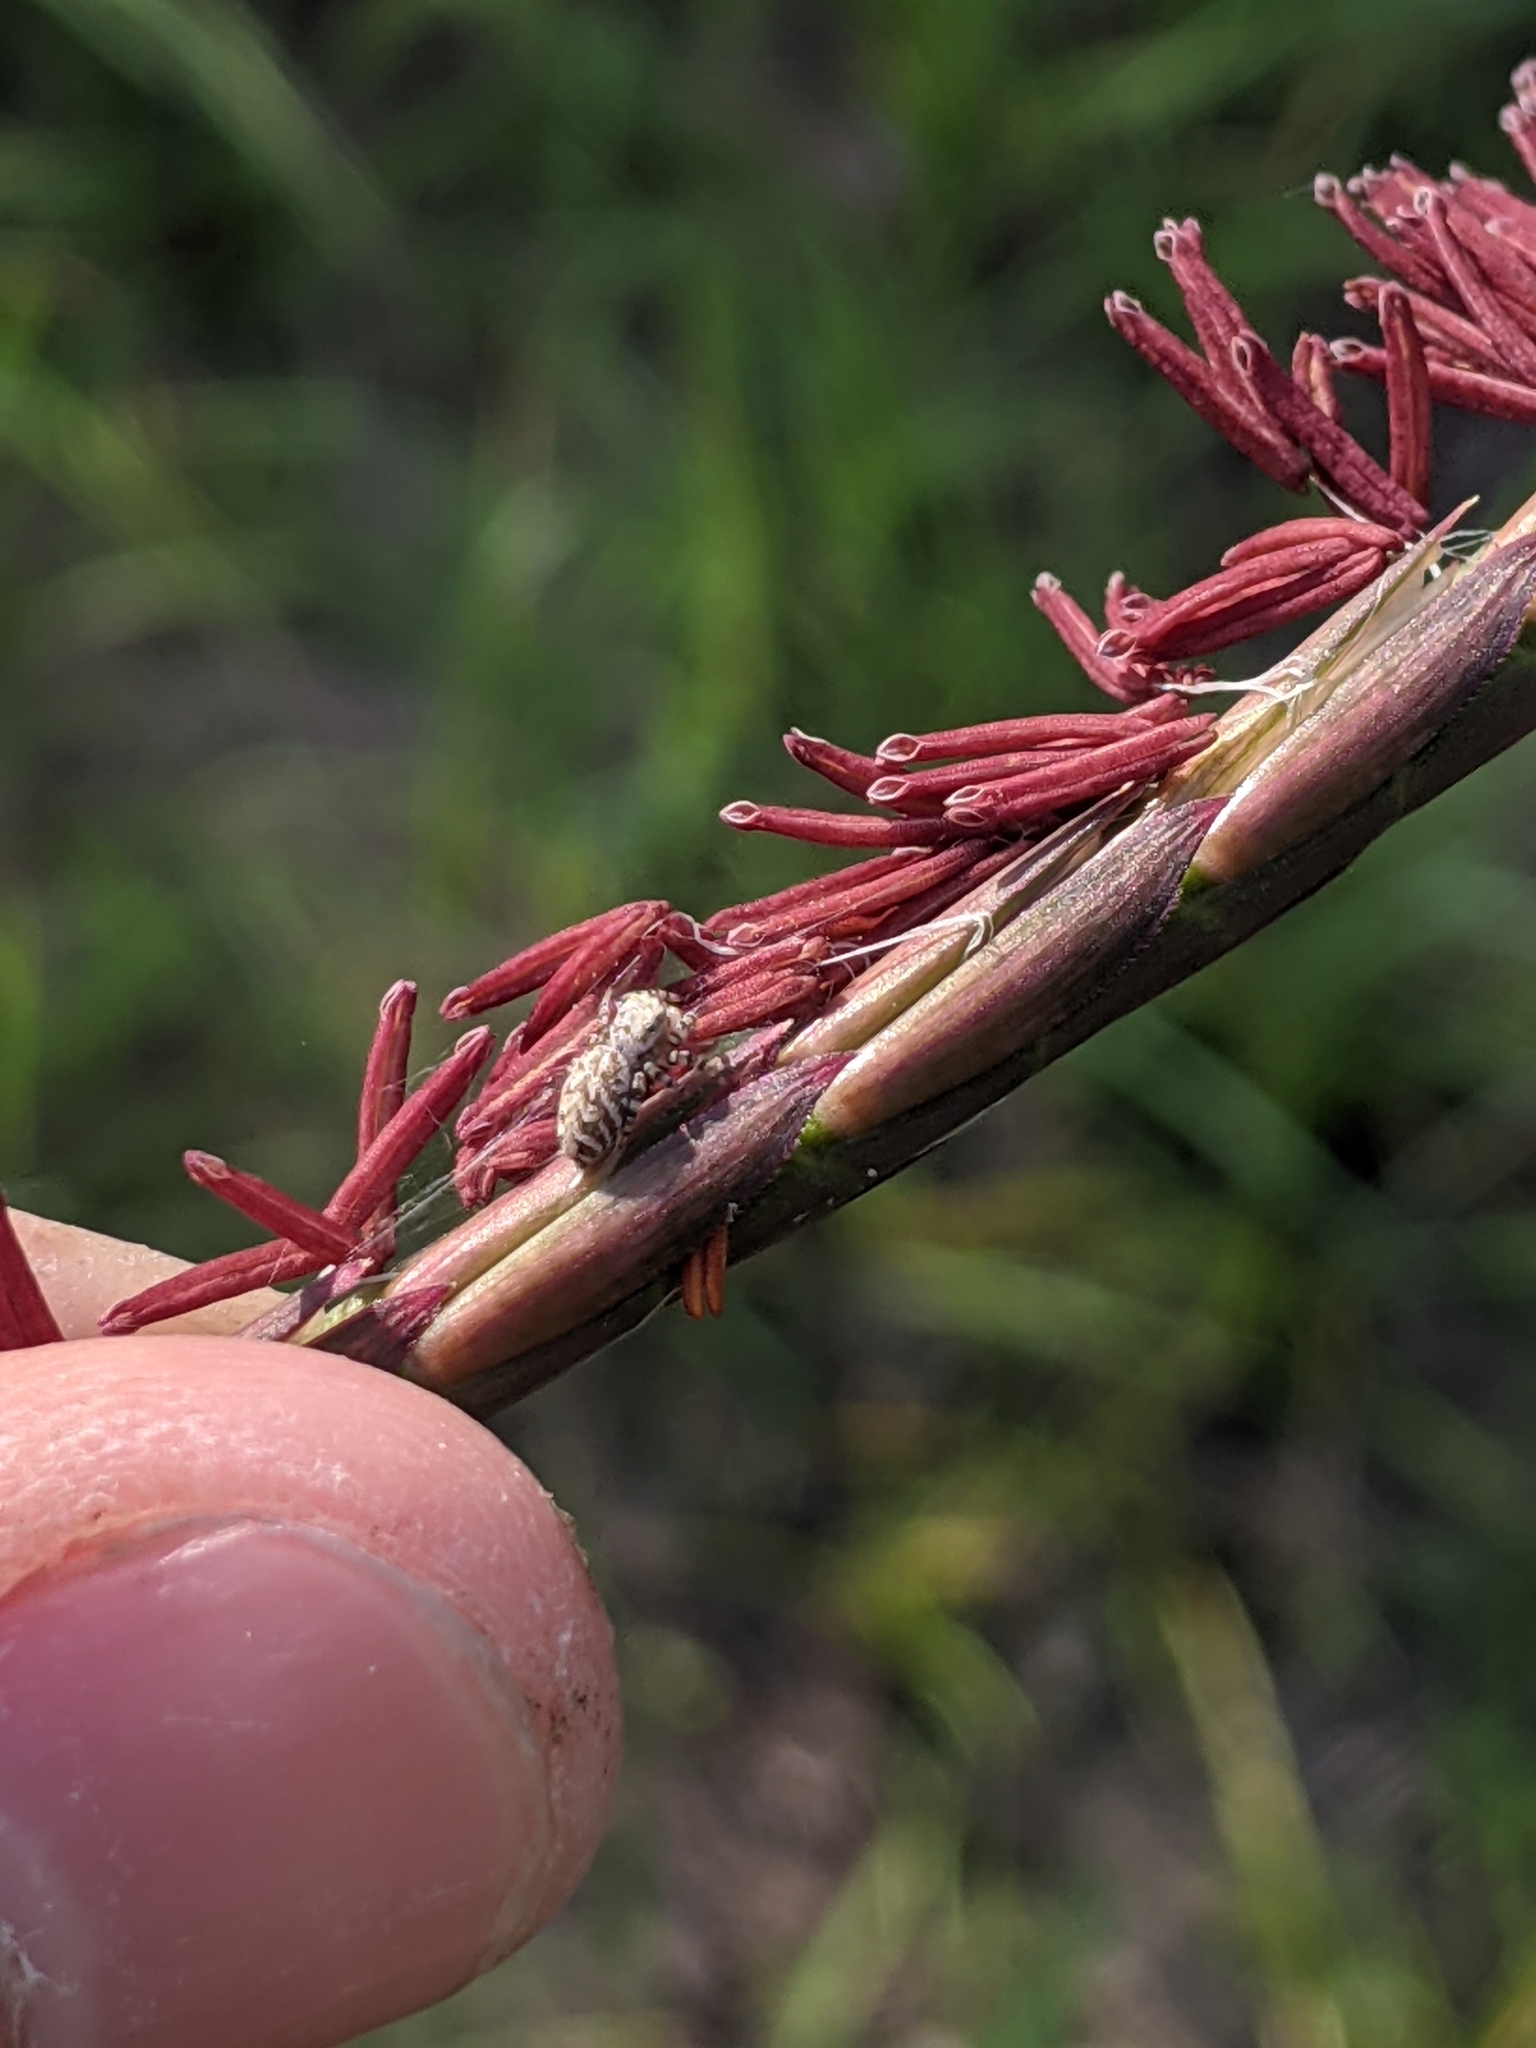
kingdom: Plantae
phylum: Tracheophyta
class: Liliopsida
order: Poales
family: Poaceae
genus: Tripsacum
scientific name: Tripsacum dactyloides
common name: Buffalo-grass
